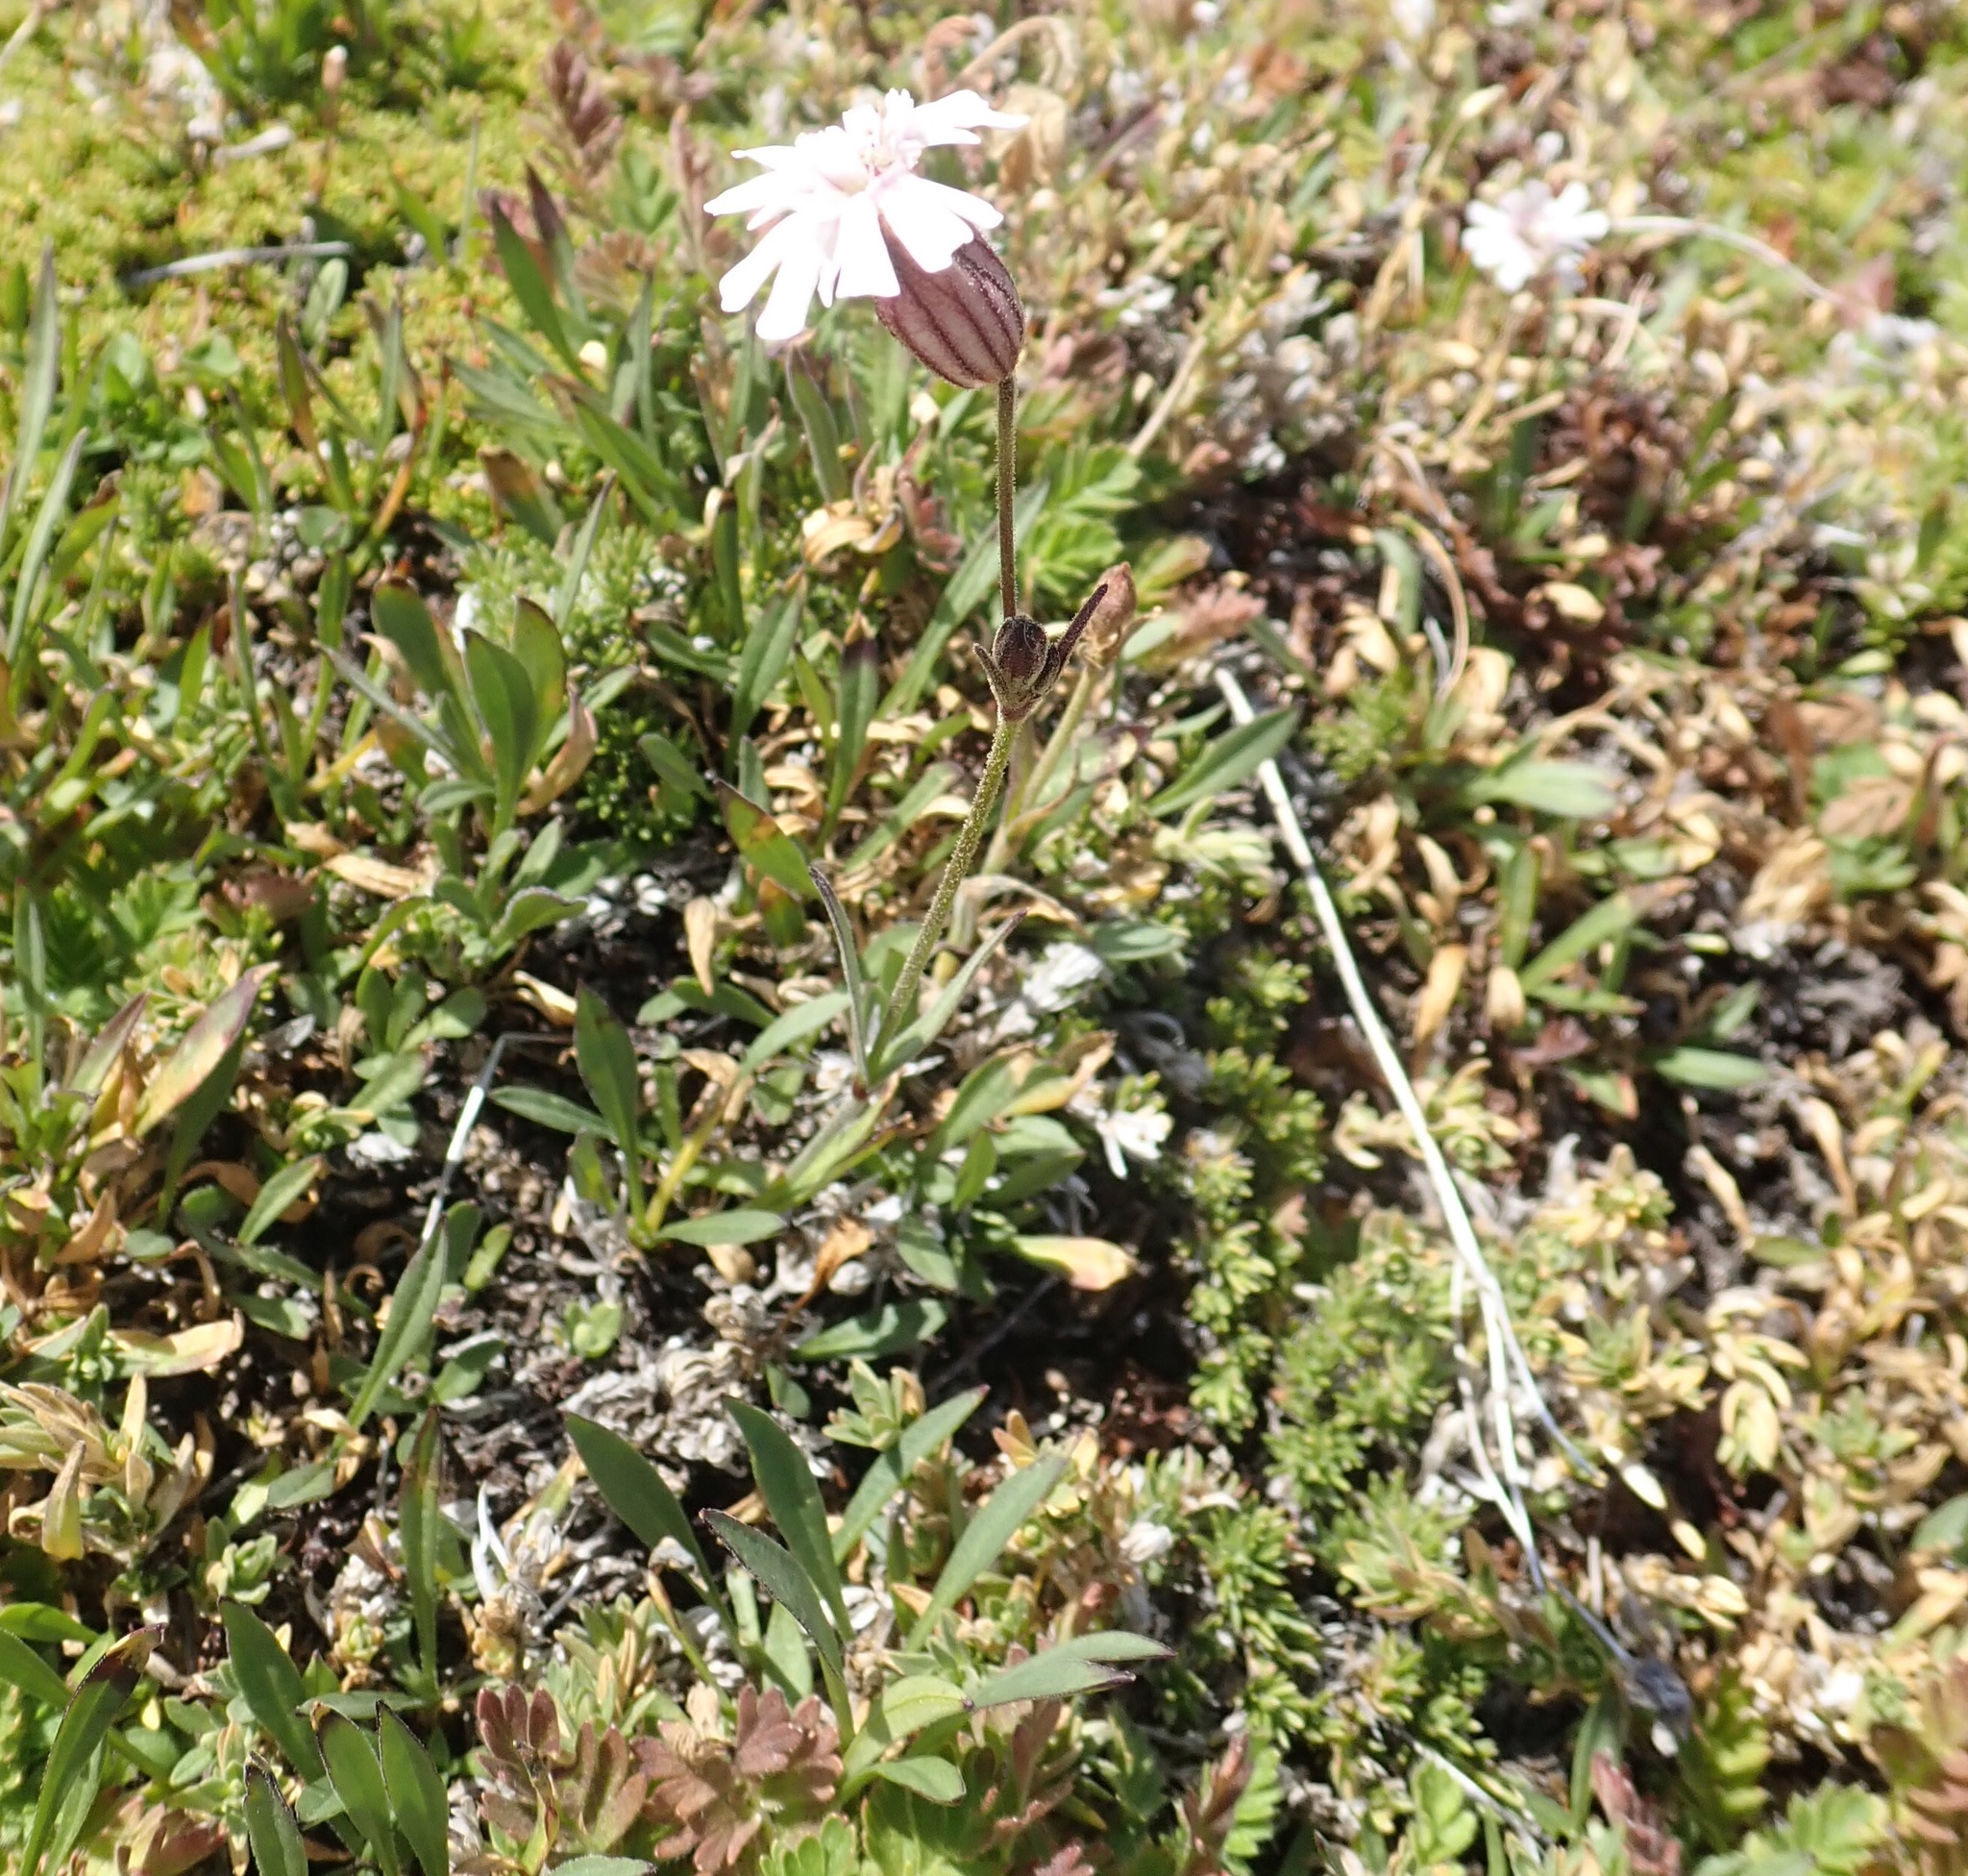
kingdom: Plantae
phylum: Tracheophyta
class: Magnoliopsida
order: Caryophyllales
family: Caryophyllaceae
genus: Silene
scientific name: Silene parryi
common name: Parry's campion
